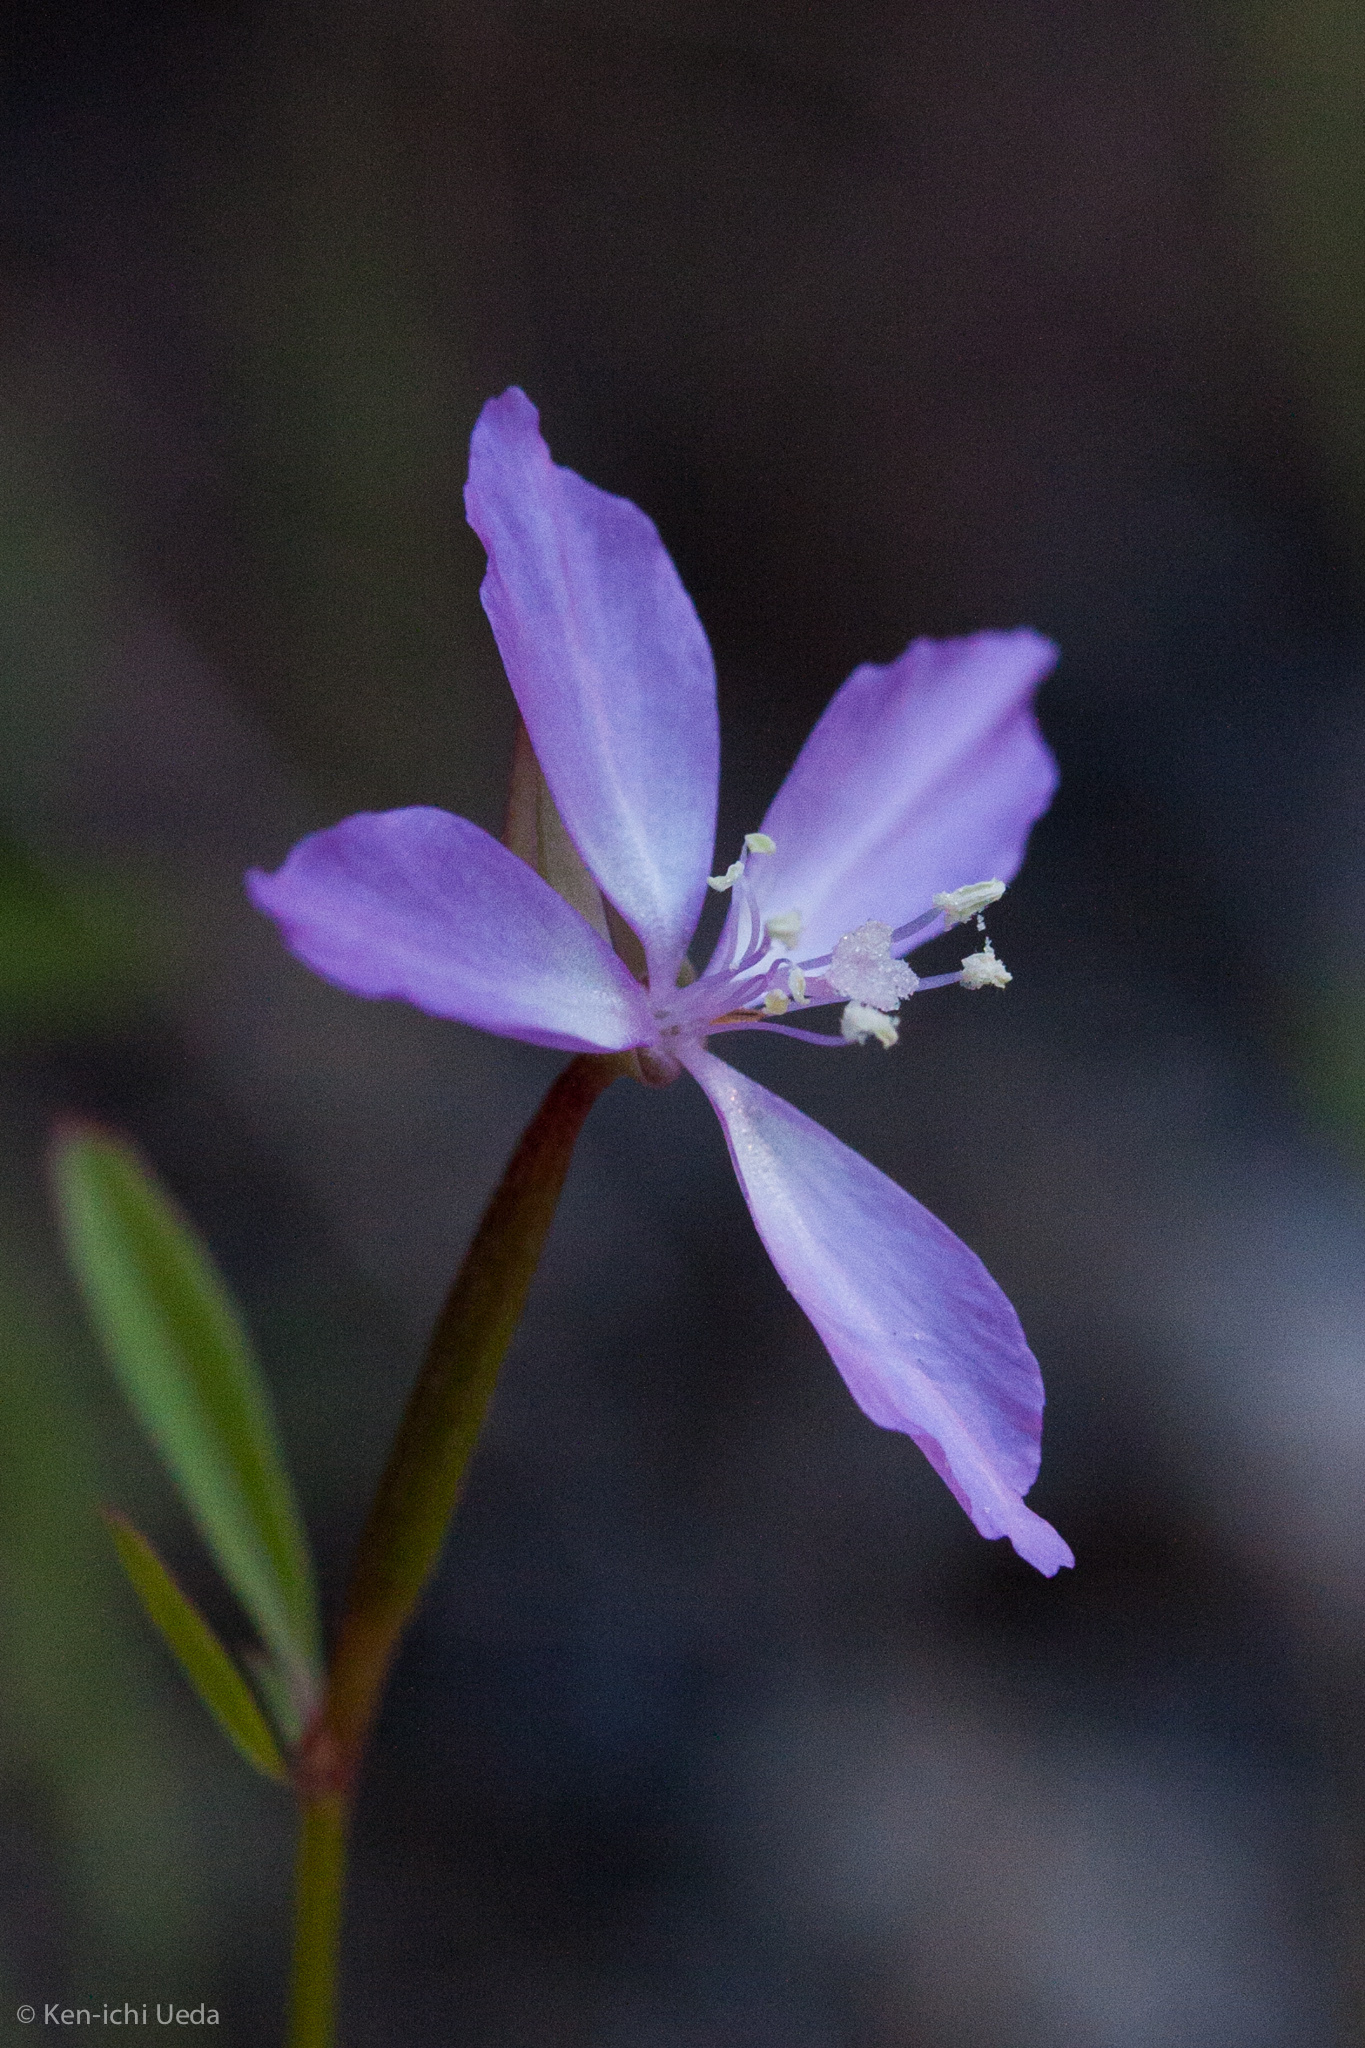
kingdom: Plantae
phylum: Tracheophyta
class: Magnoliopsida
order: Myrtales
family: Onagraceae
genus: Clarkia
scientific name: Clarkia modesta
